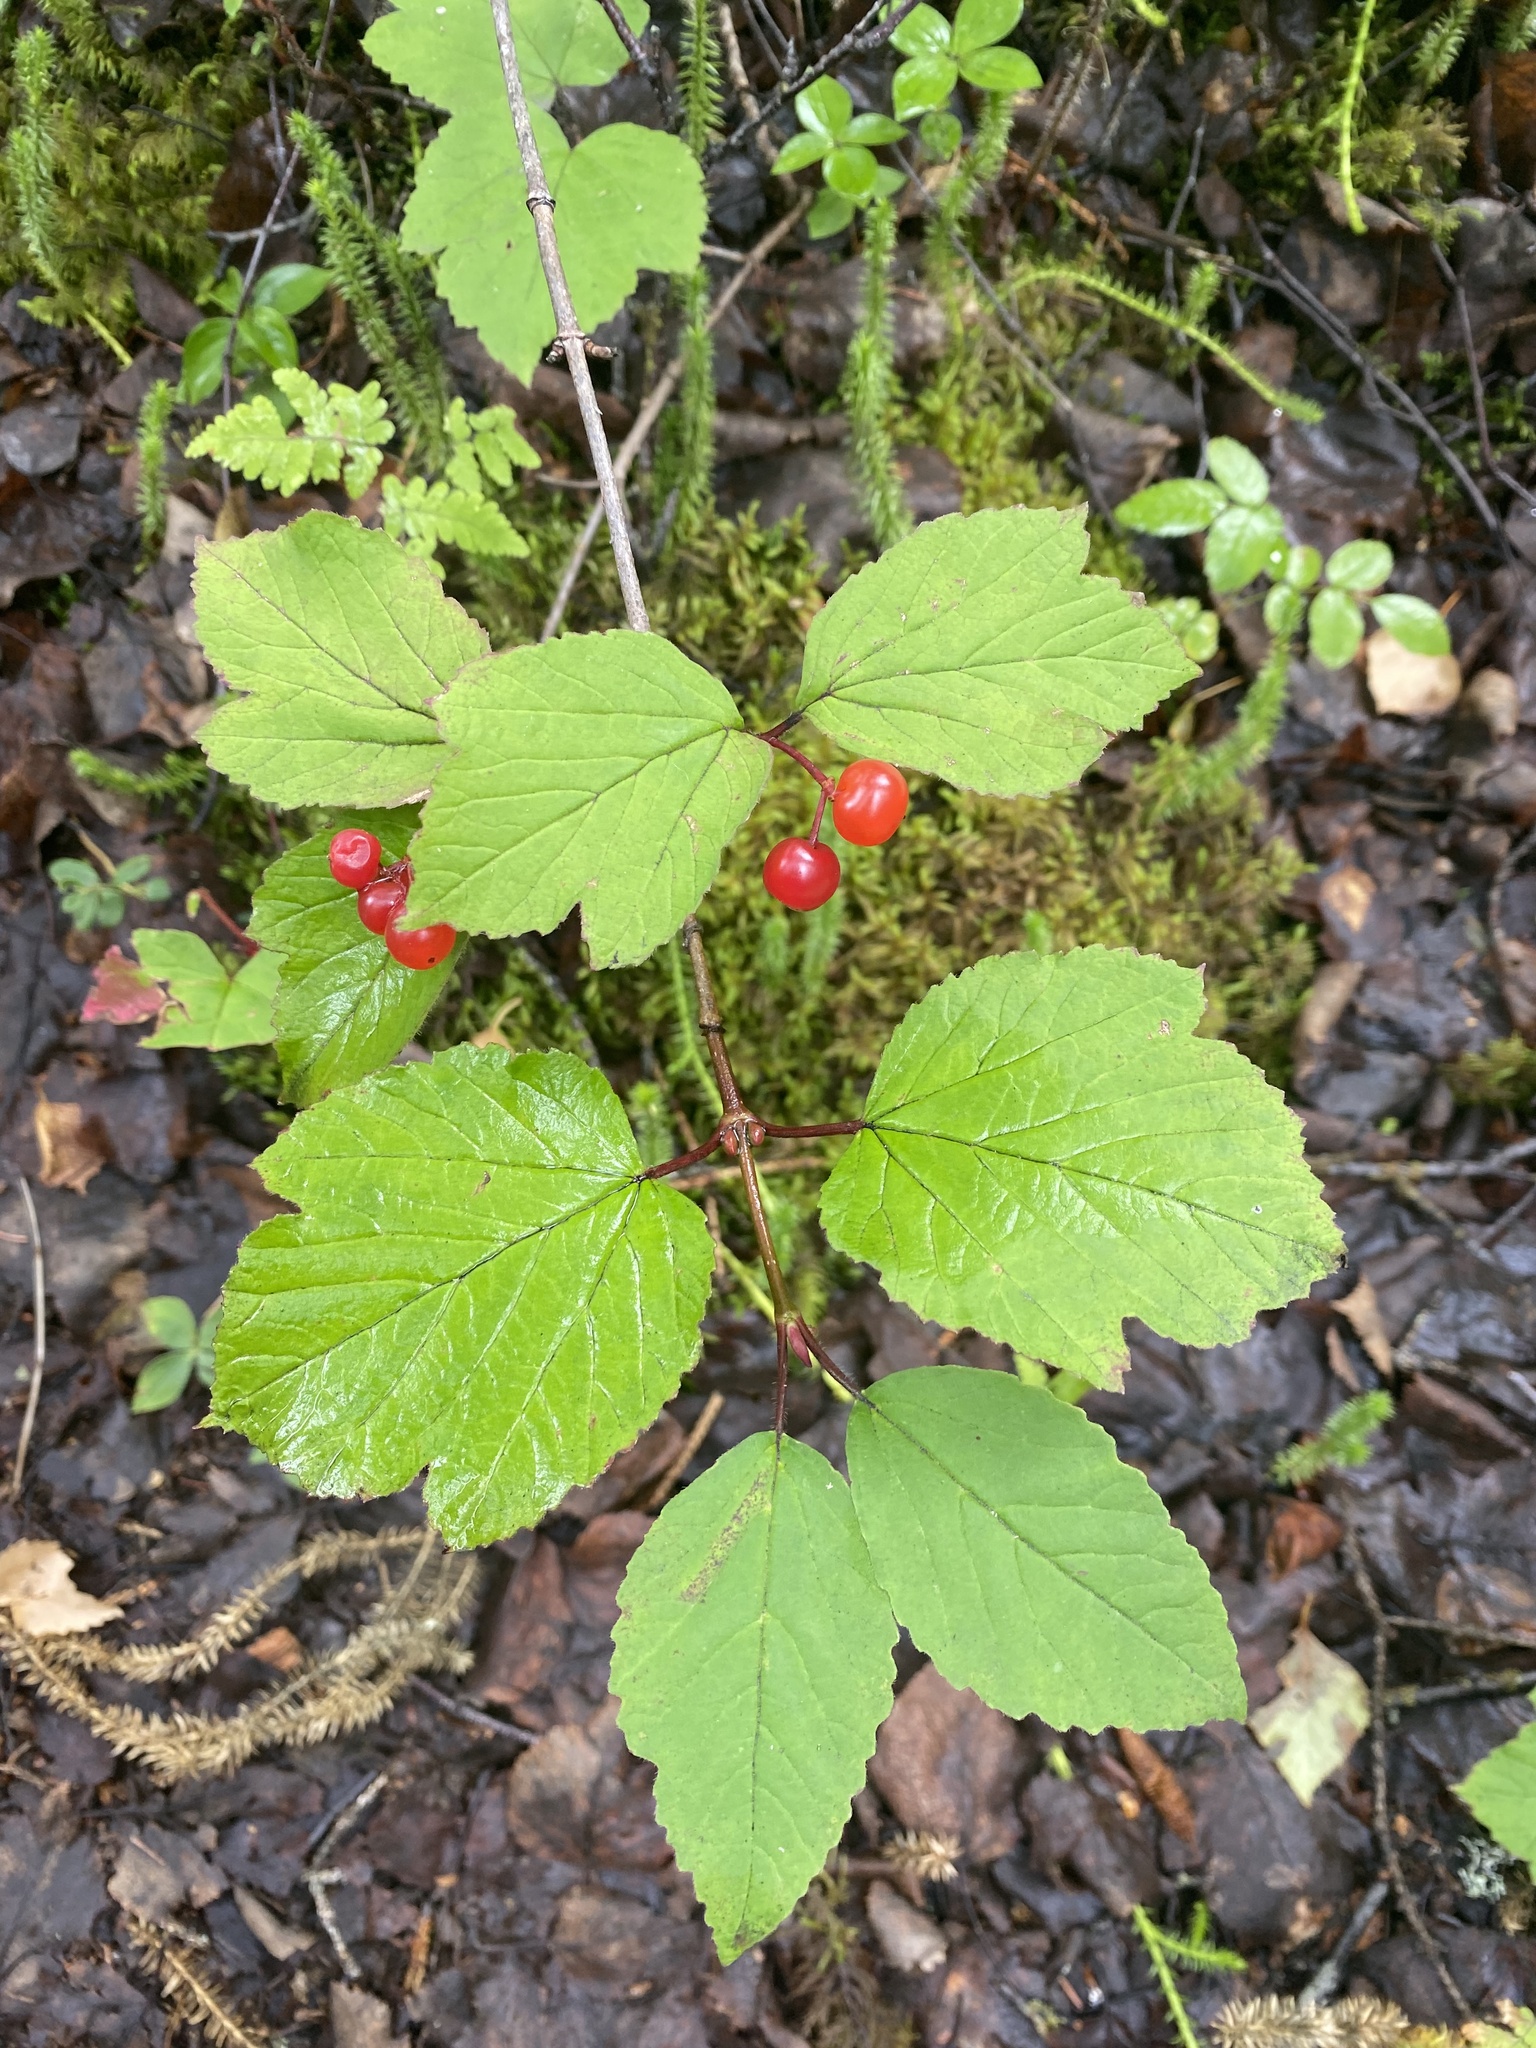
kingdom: Plantae
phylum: Tracheophyta
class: Magnoliopsida
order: Dipsacales
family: Viburnaceae
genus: Viburnum
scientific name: Viburnum edule
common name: Mooseberry
